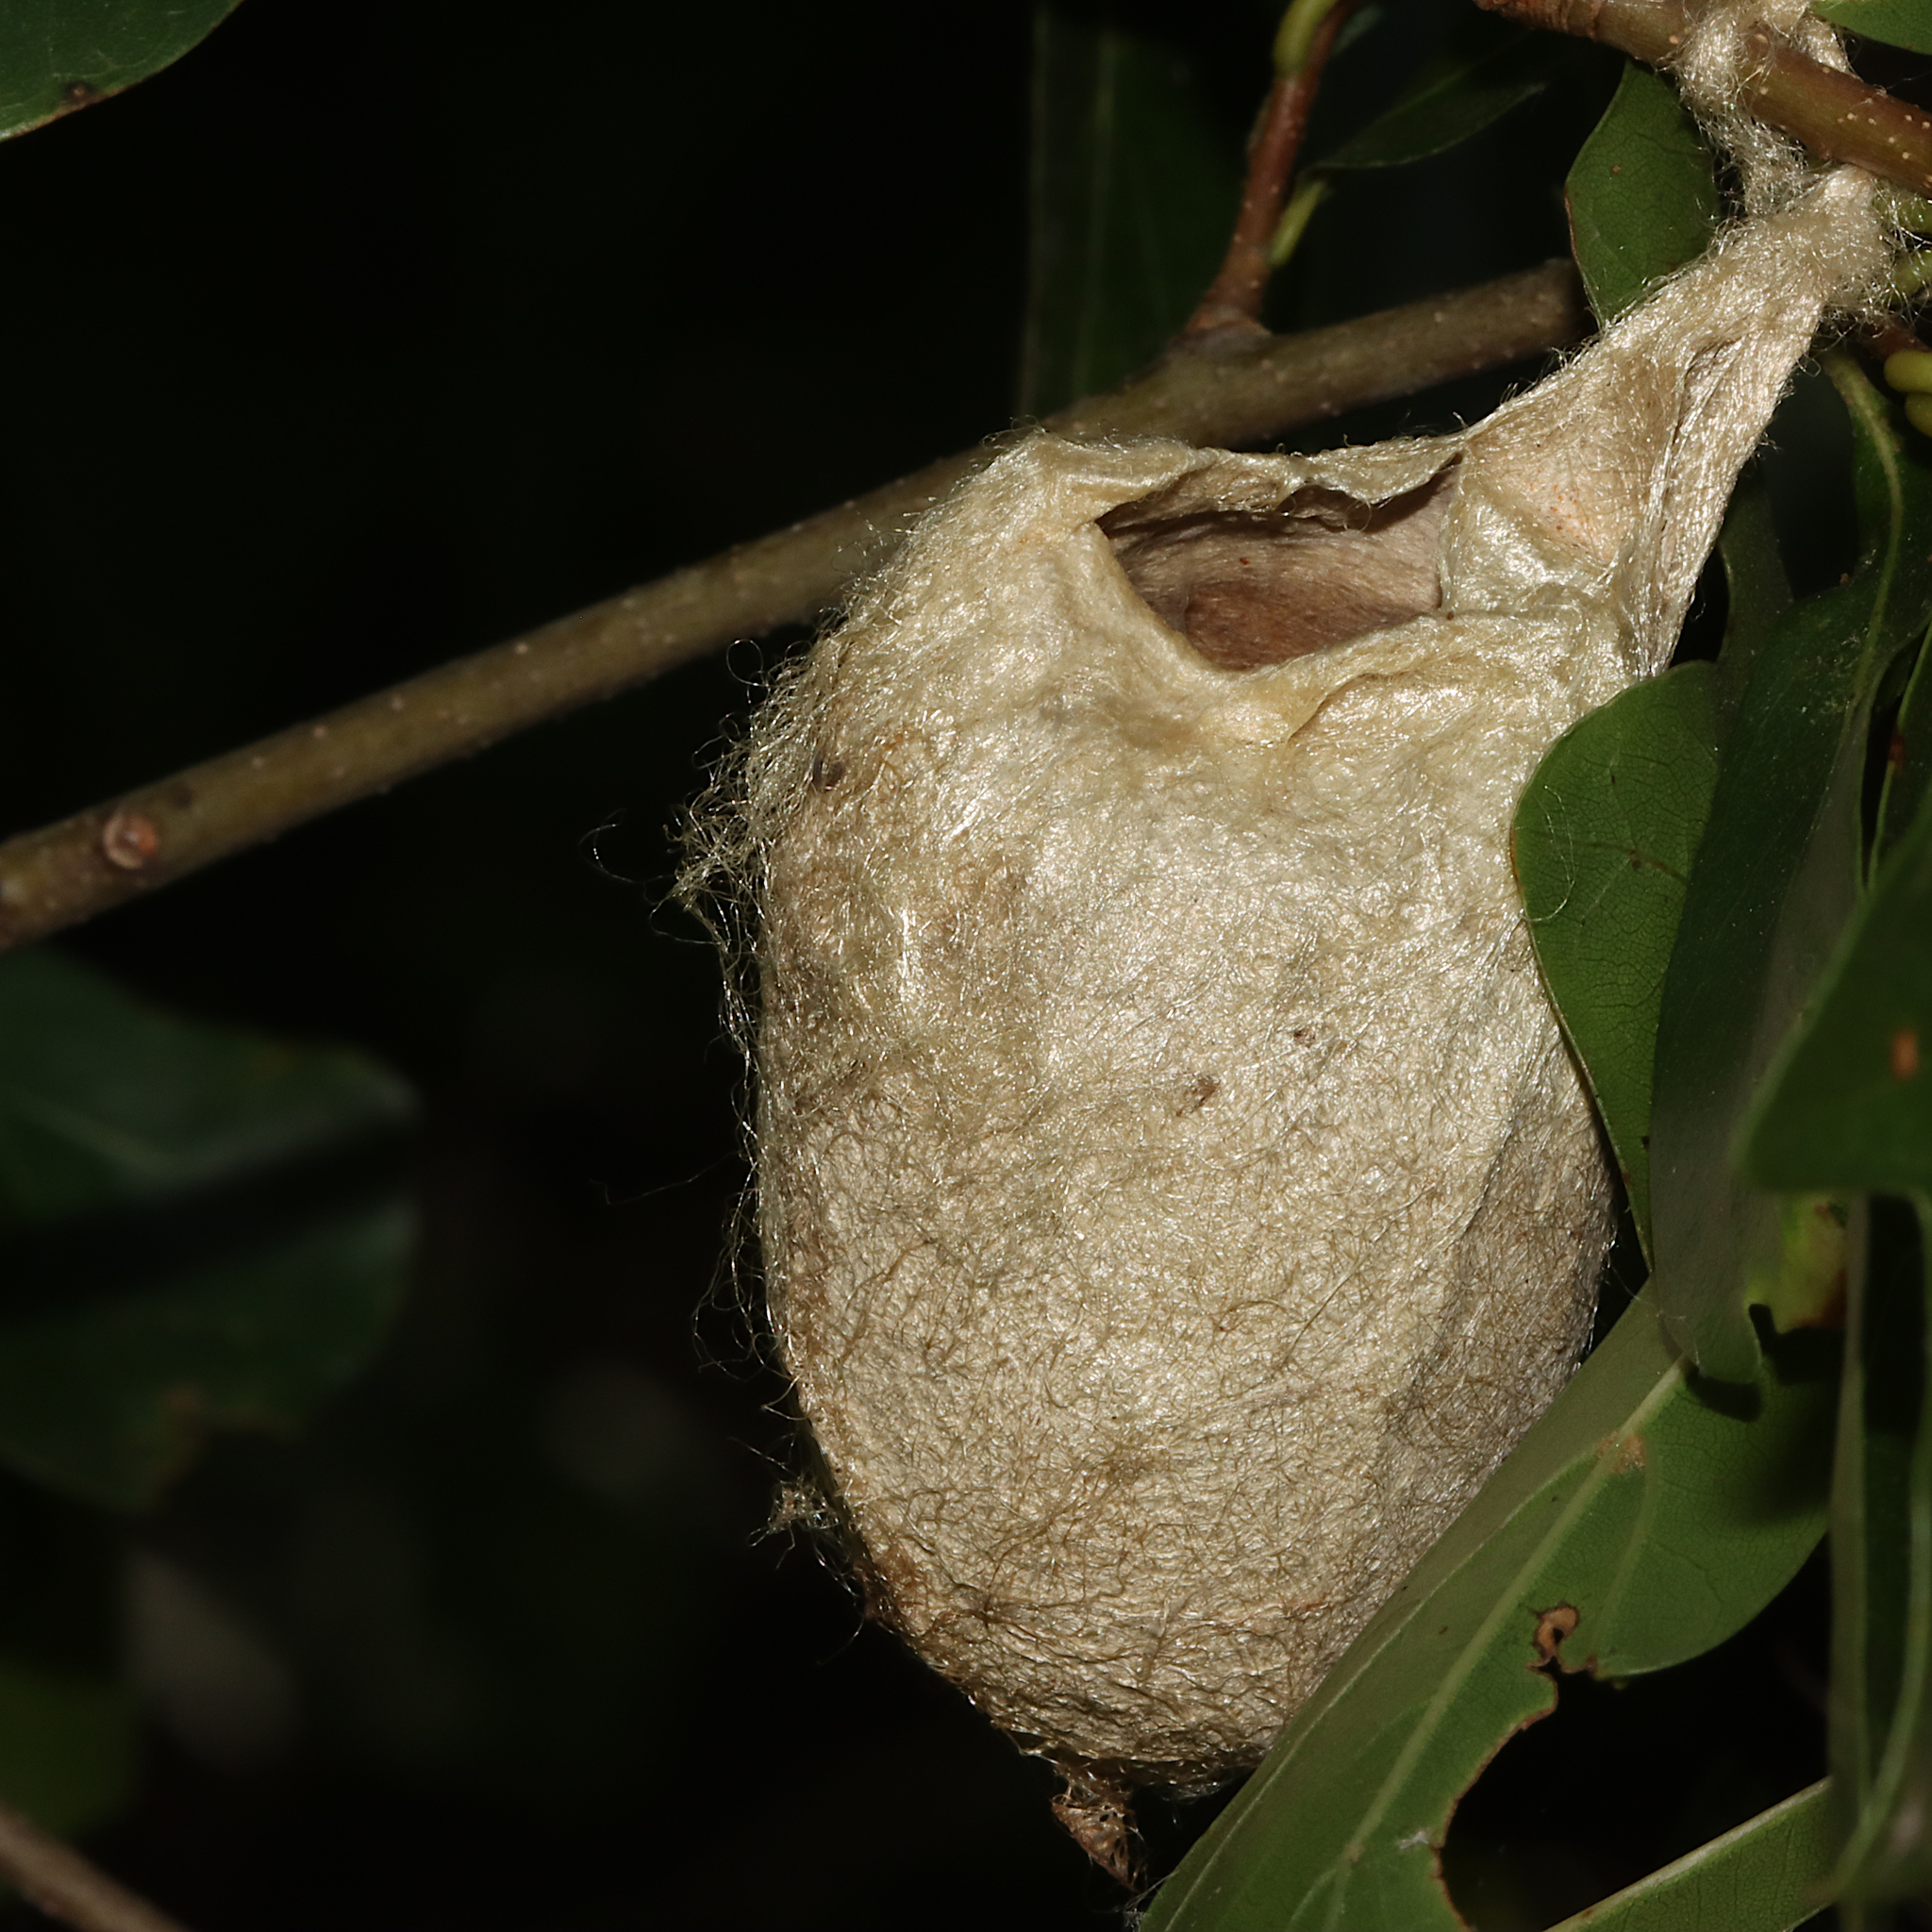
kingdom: Animalia
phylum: Arthropoda
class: Insecta
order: Lepidoptera
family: Saturniidae
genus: Antheraea
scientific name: Antheraea polyphemus
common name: Polyphemus moth
